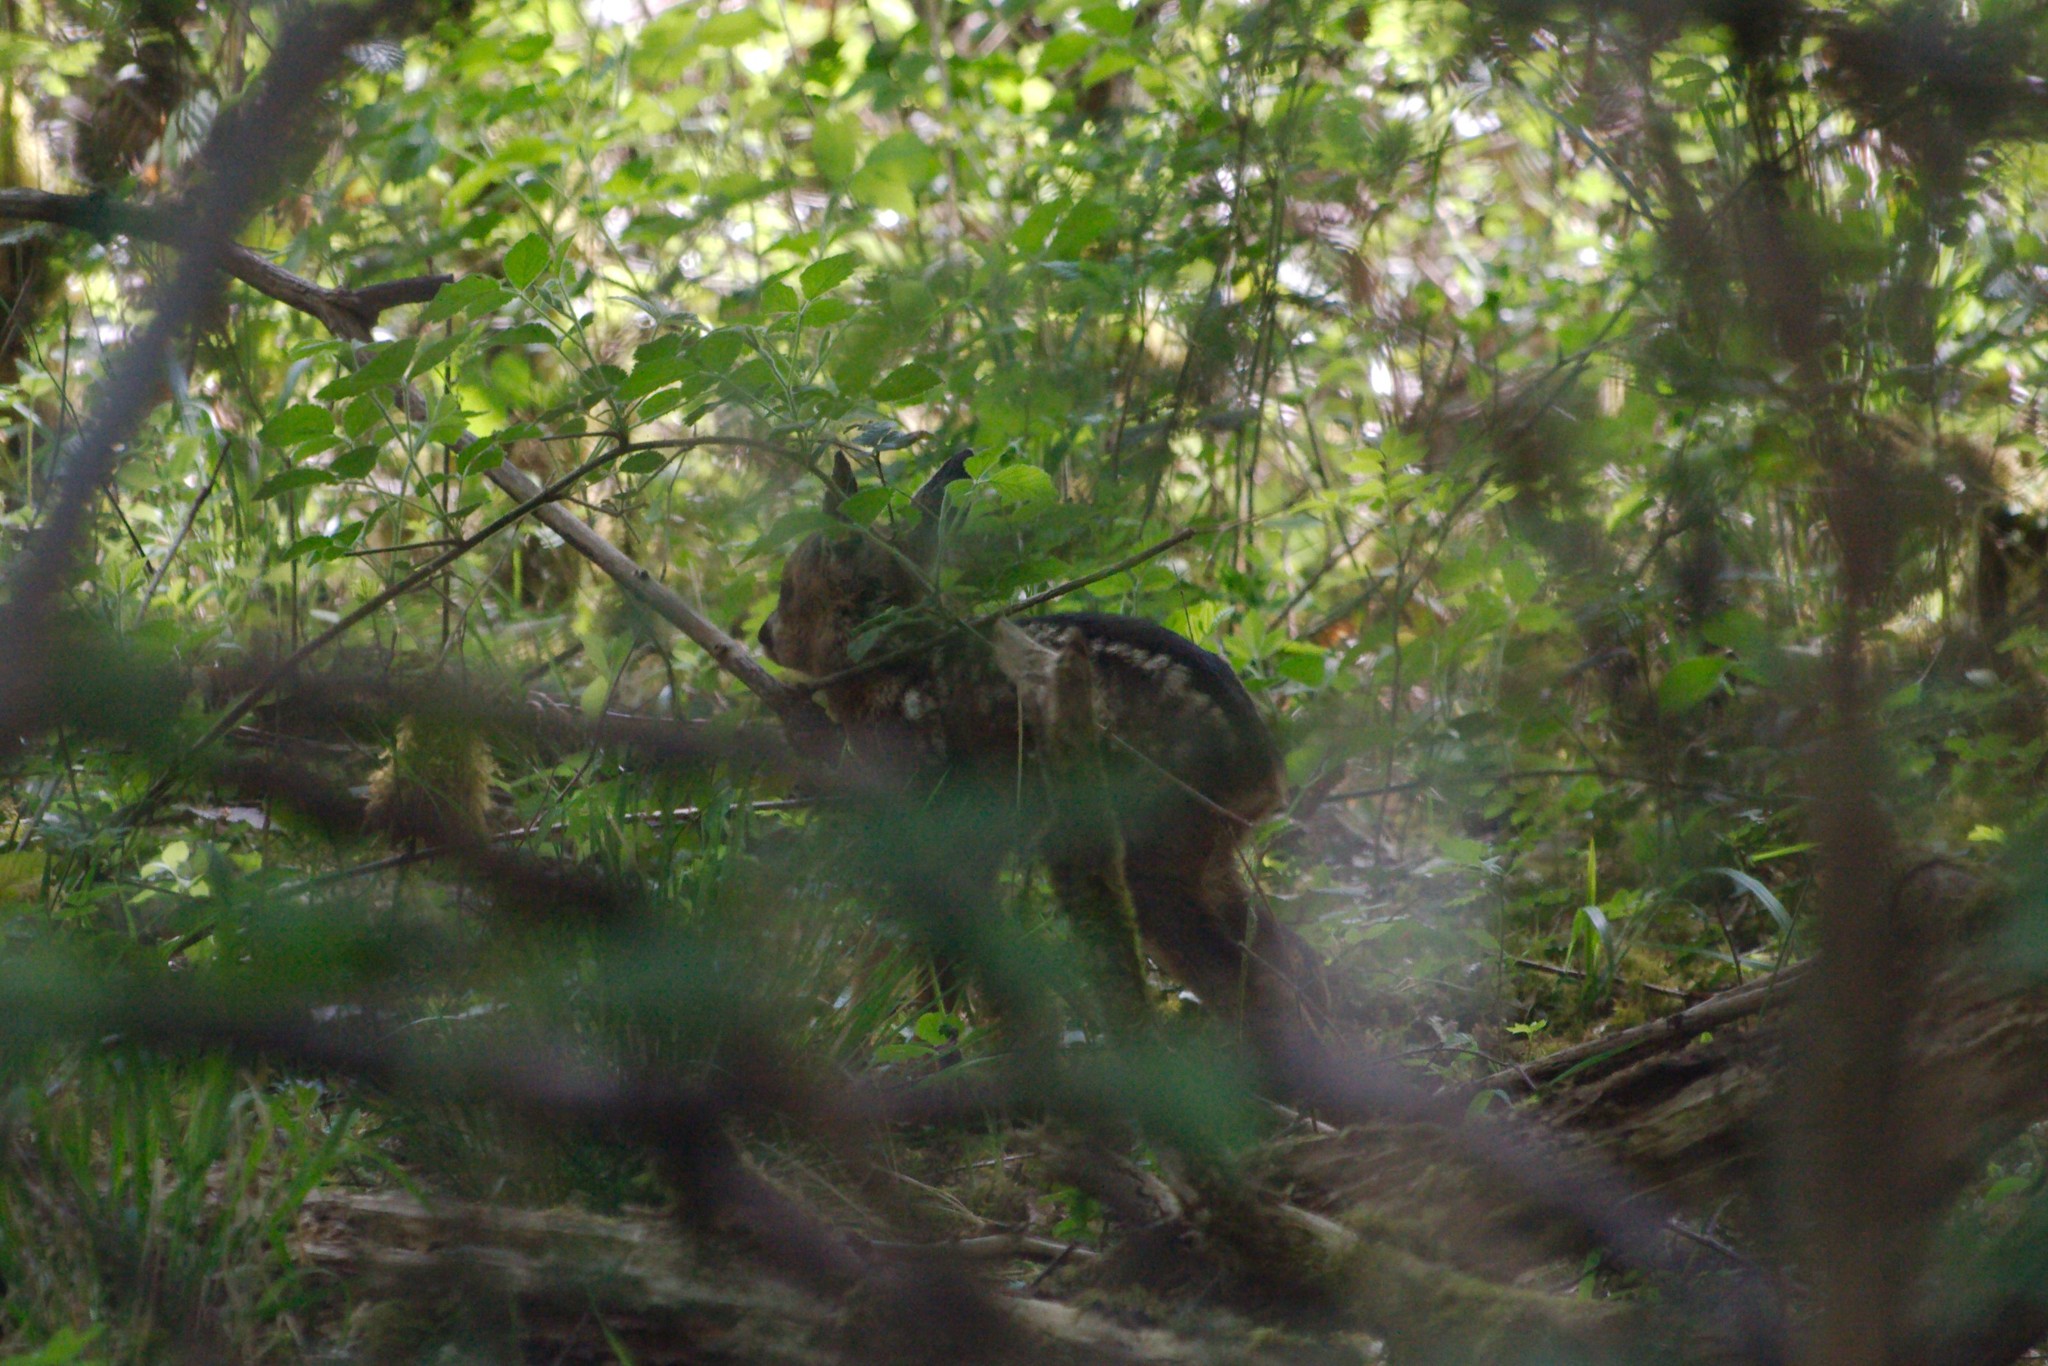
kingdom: Animalia
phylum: Chordata
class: Mammalia
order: Artiodactyla
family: Cervidae
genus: Capreolus
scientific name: Capreolus capreolus
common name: Western roe deer
